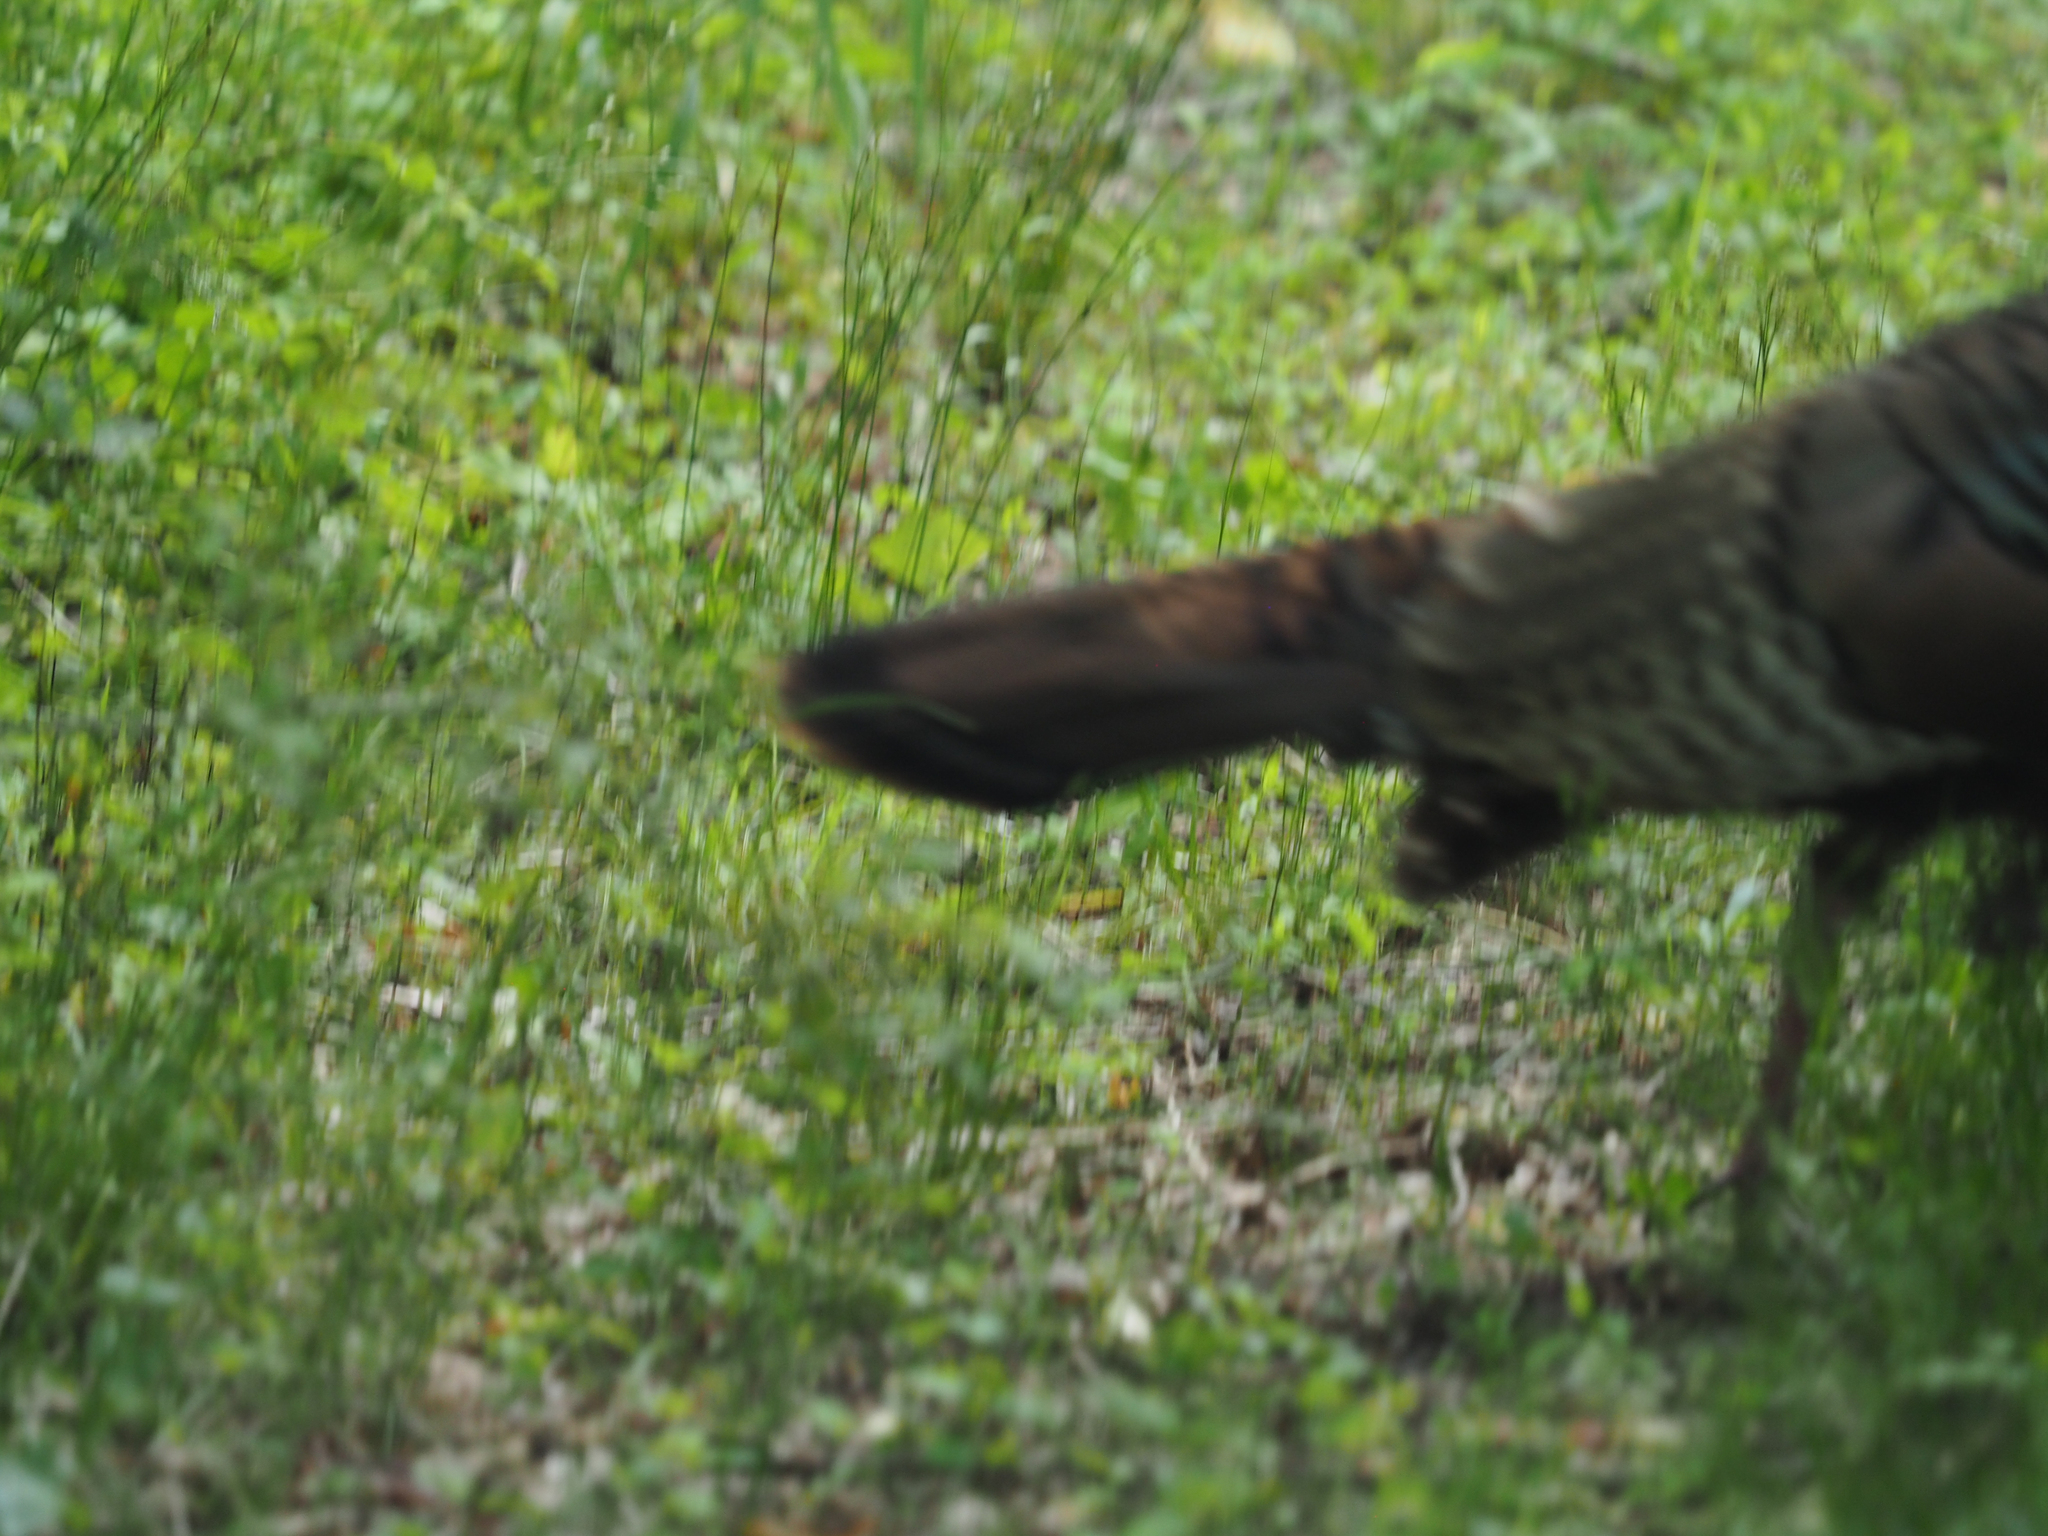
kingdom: Animalia
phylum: Chordata
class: Aves
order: Galliformes
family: Phasianidae
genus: Meleagris
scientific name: Meleagris gallopavo
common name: Wild turkey
